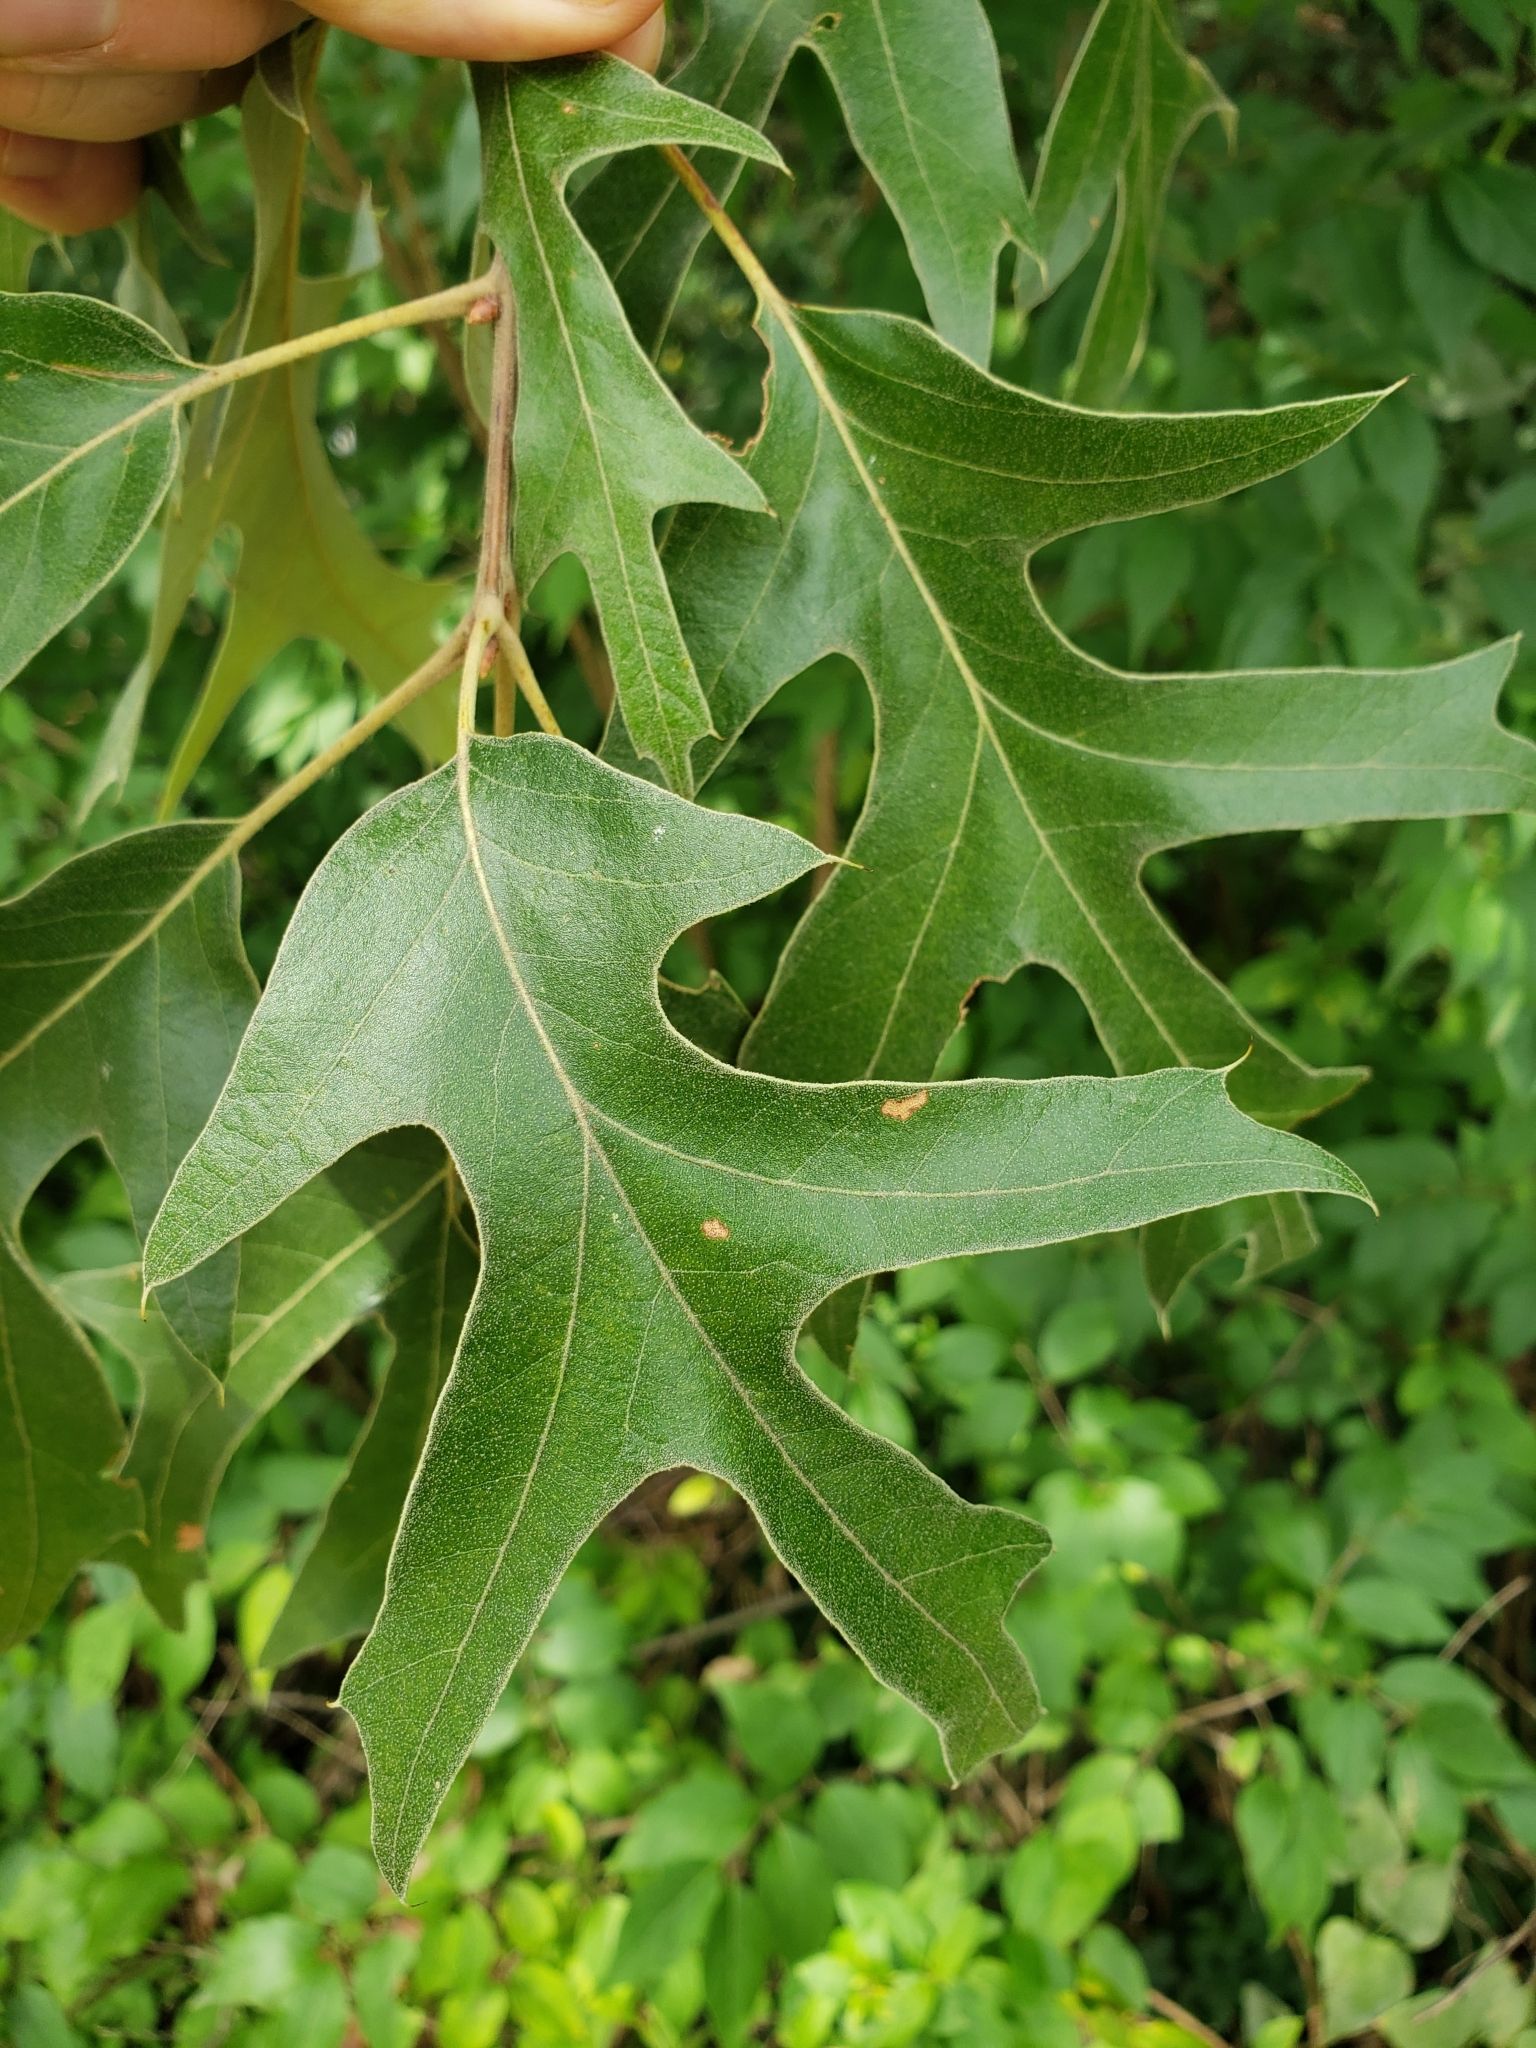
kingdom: Plantae
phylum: Tracheophyta
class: Magnoliopsida
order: Fagales
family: Fagaceae
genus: Quercus
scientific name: Quercus falcata
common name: Southern red oak
